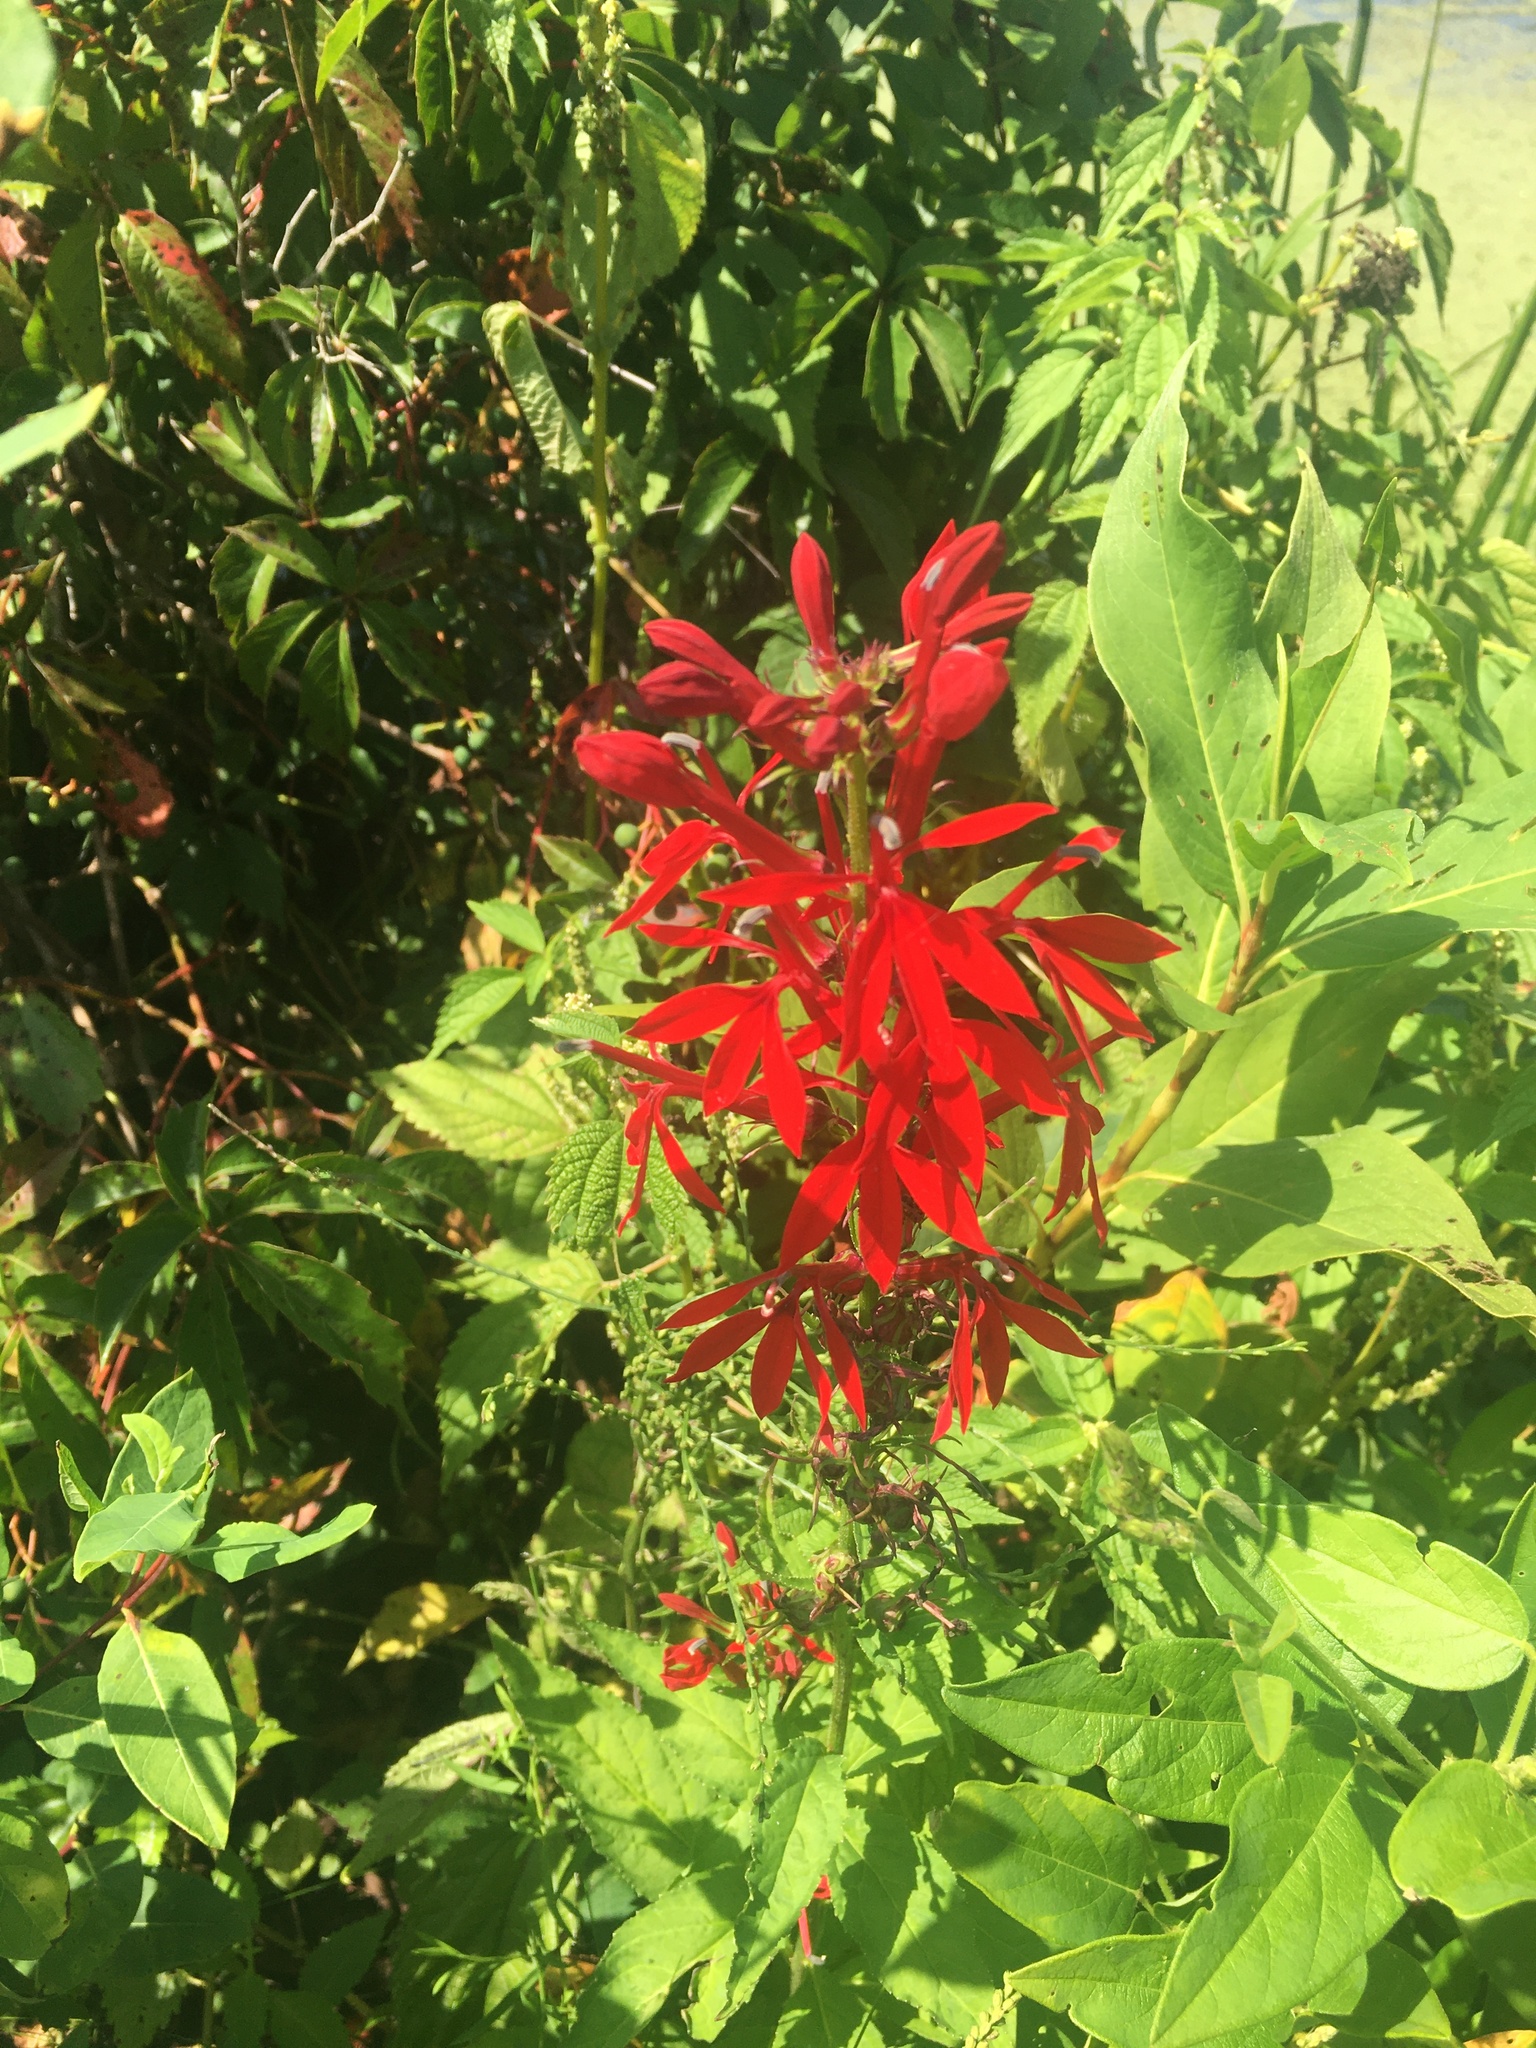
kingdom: Plantae
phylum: Tracheophyta
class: Magnoliopsida
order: Asterales
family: Campanulaceae
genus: Lobelia
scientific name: Lobelia cardinalis
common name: Cardinal flower
